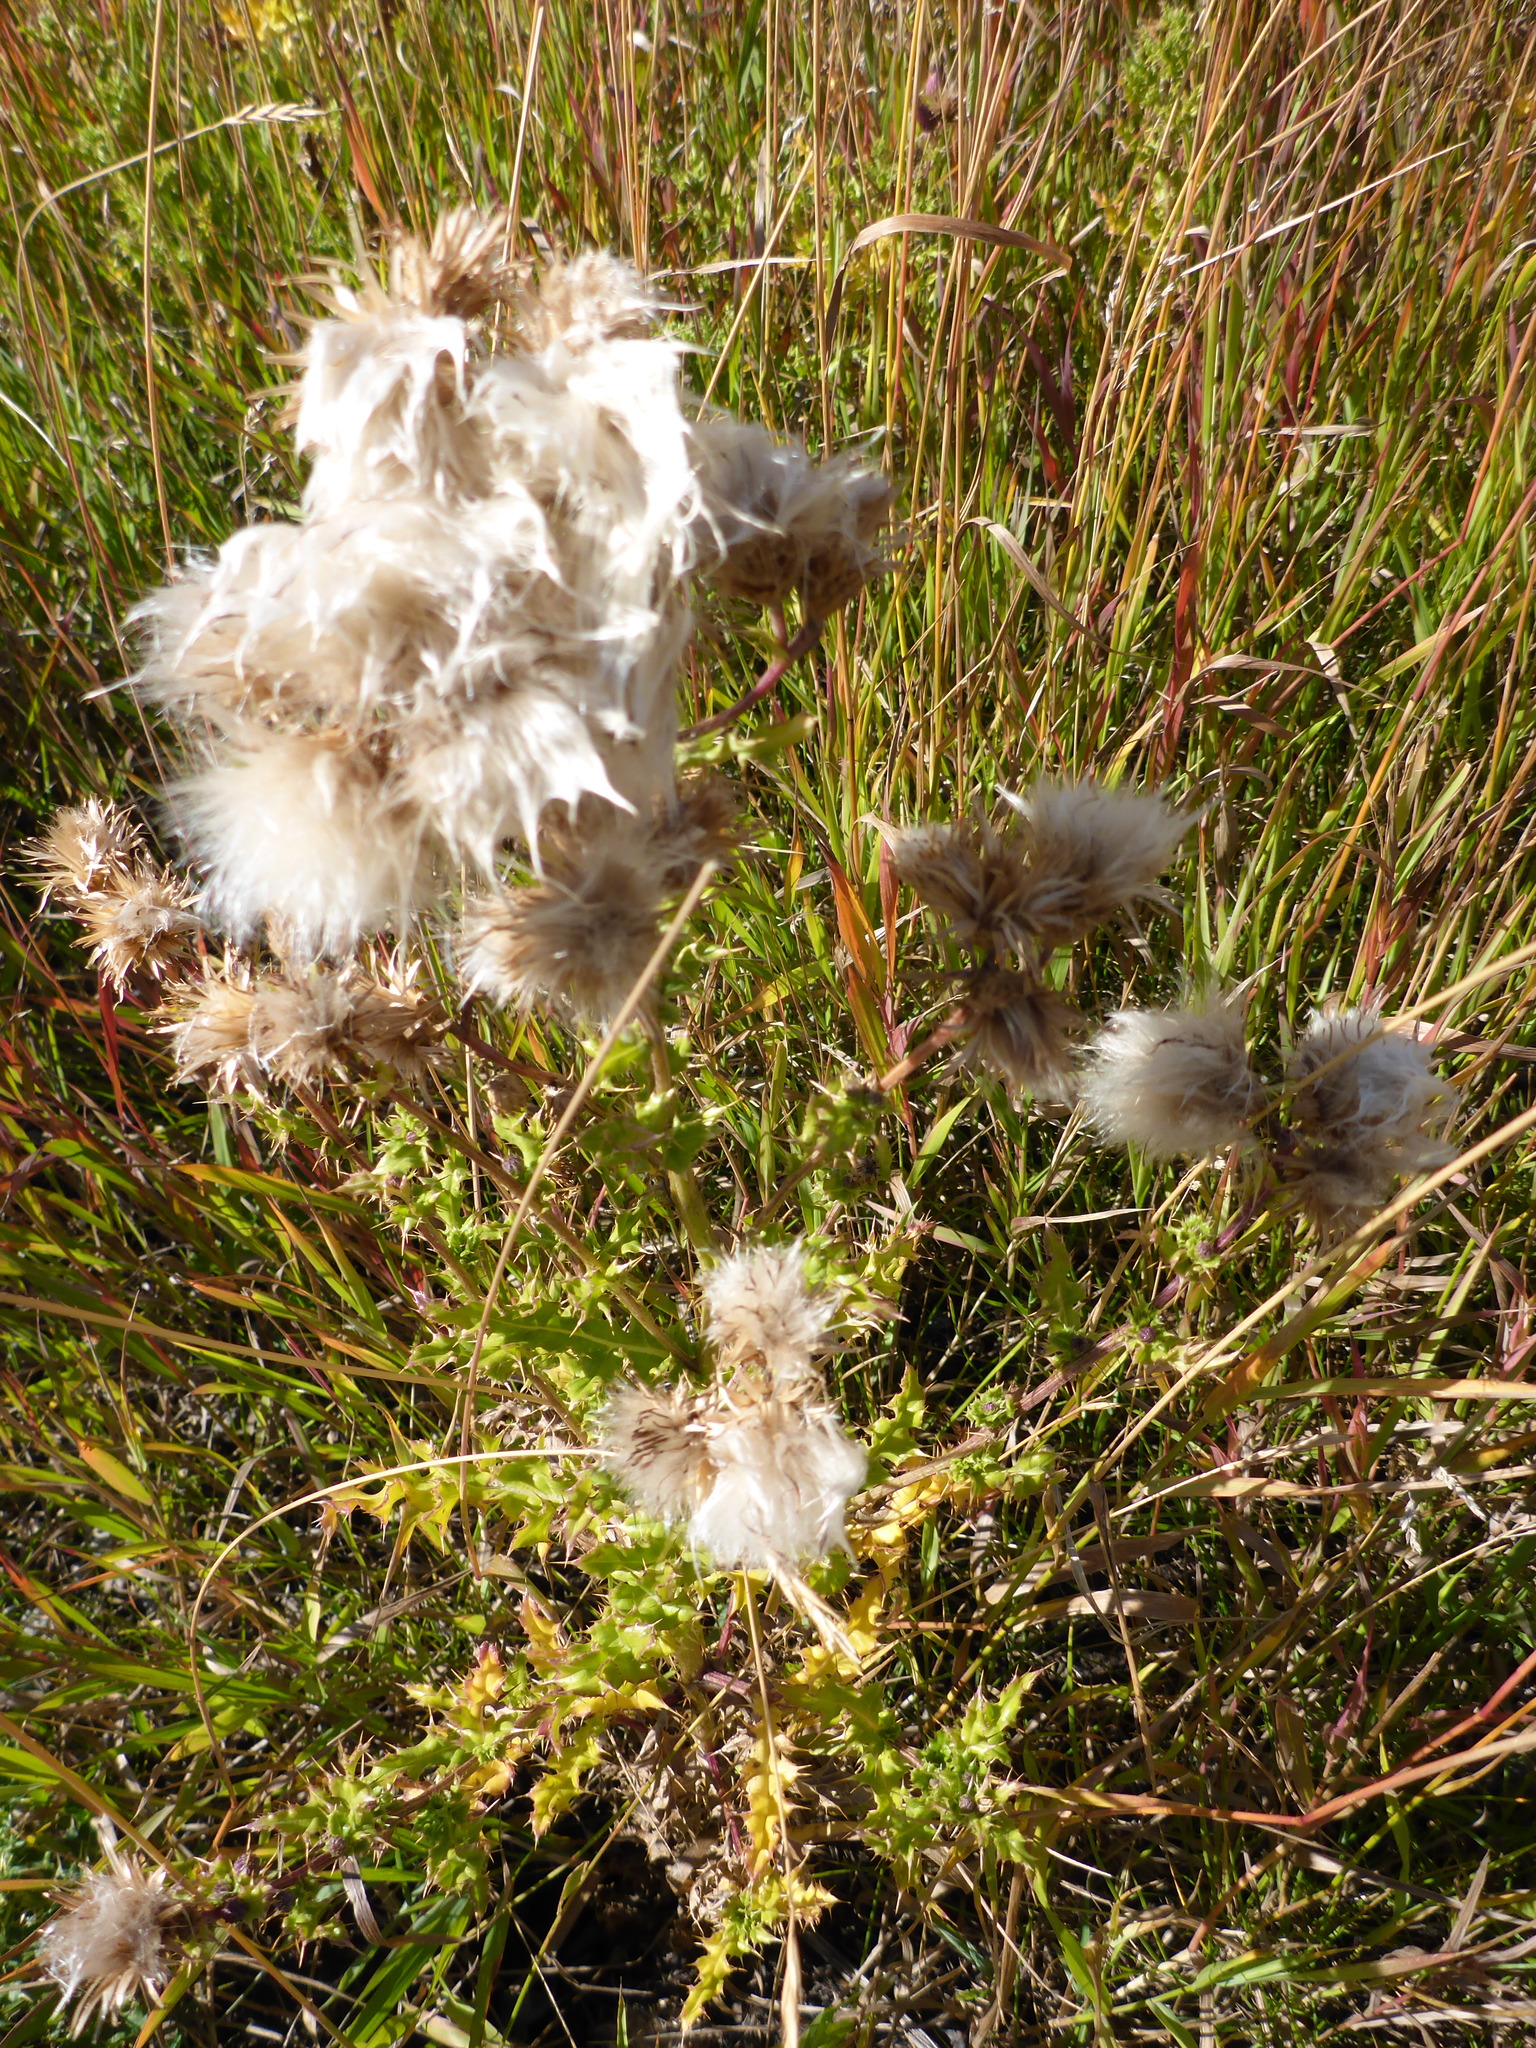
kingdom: Plantae
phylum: Tracheophyta
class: Magnoliopsida
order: Asterales
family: Asteraceae
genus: Cirsium
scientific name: Cirsium arvense
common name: Creeping thistle
